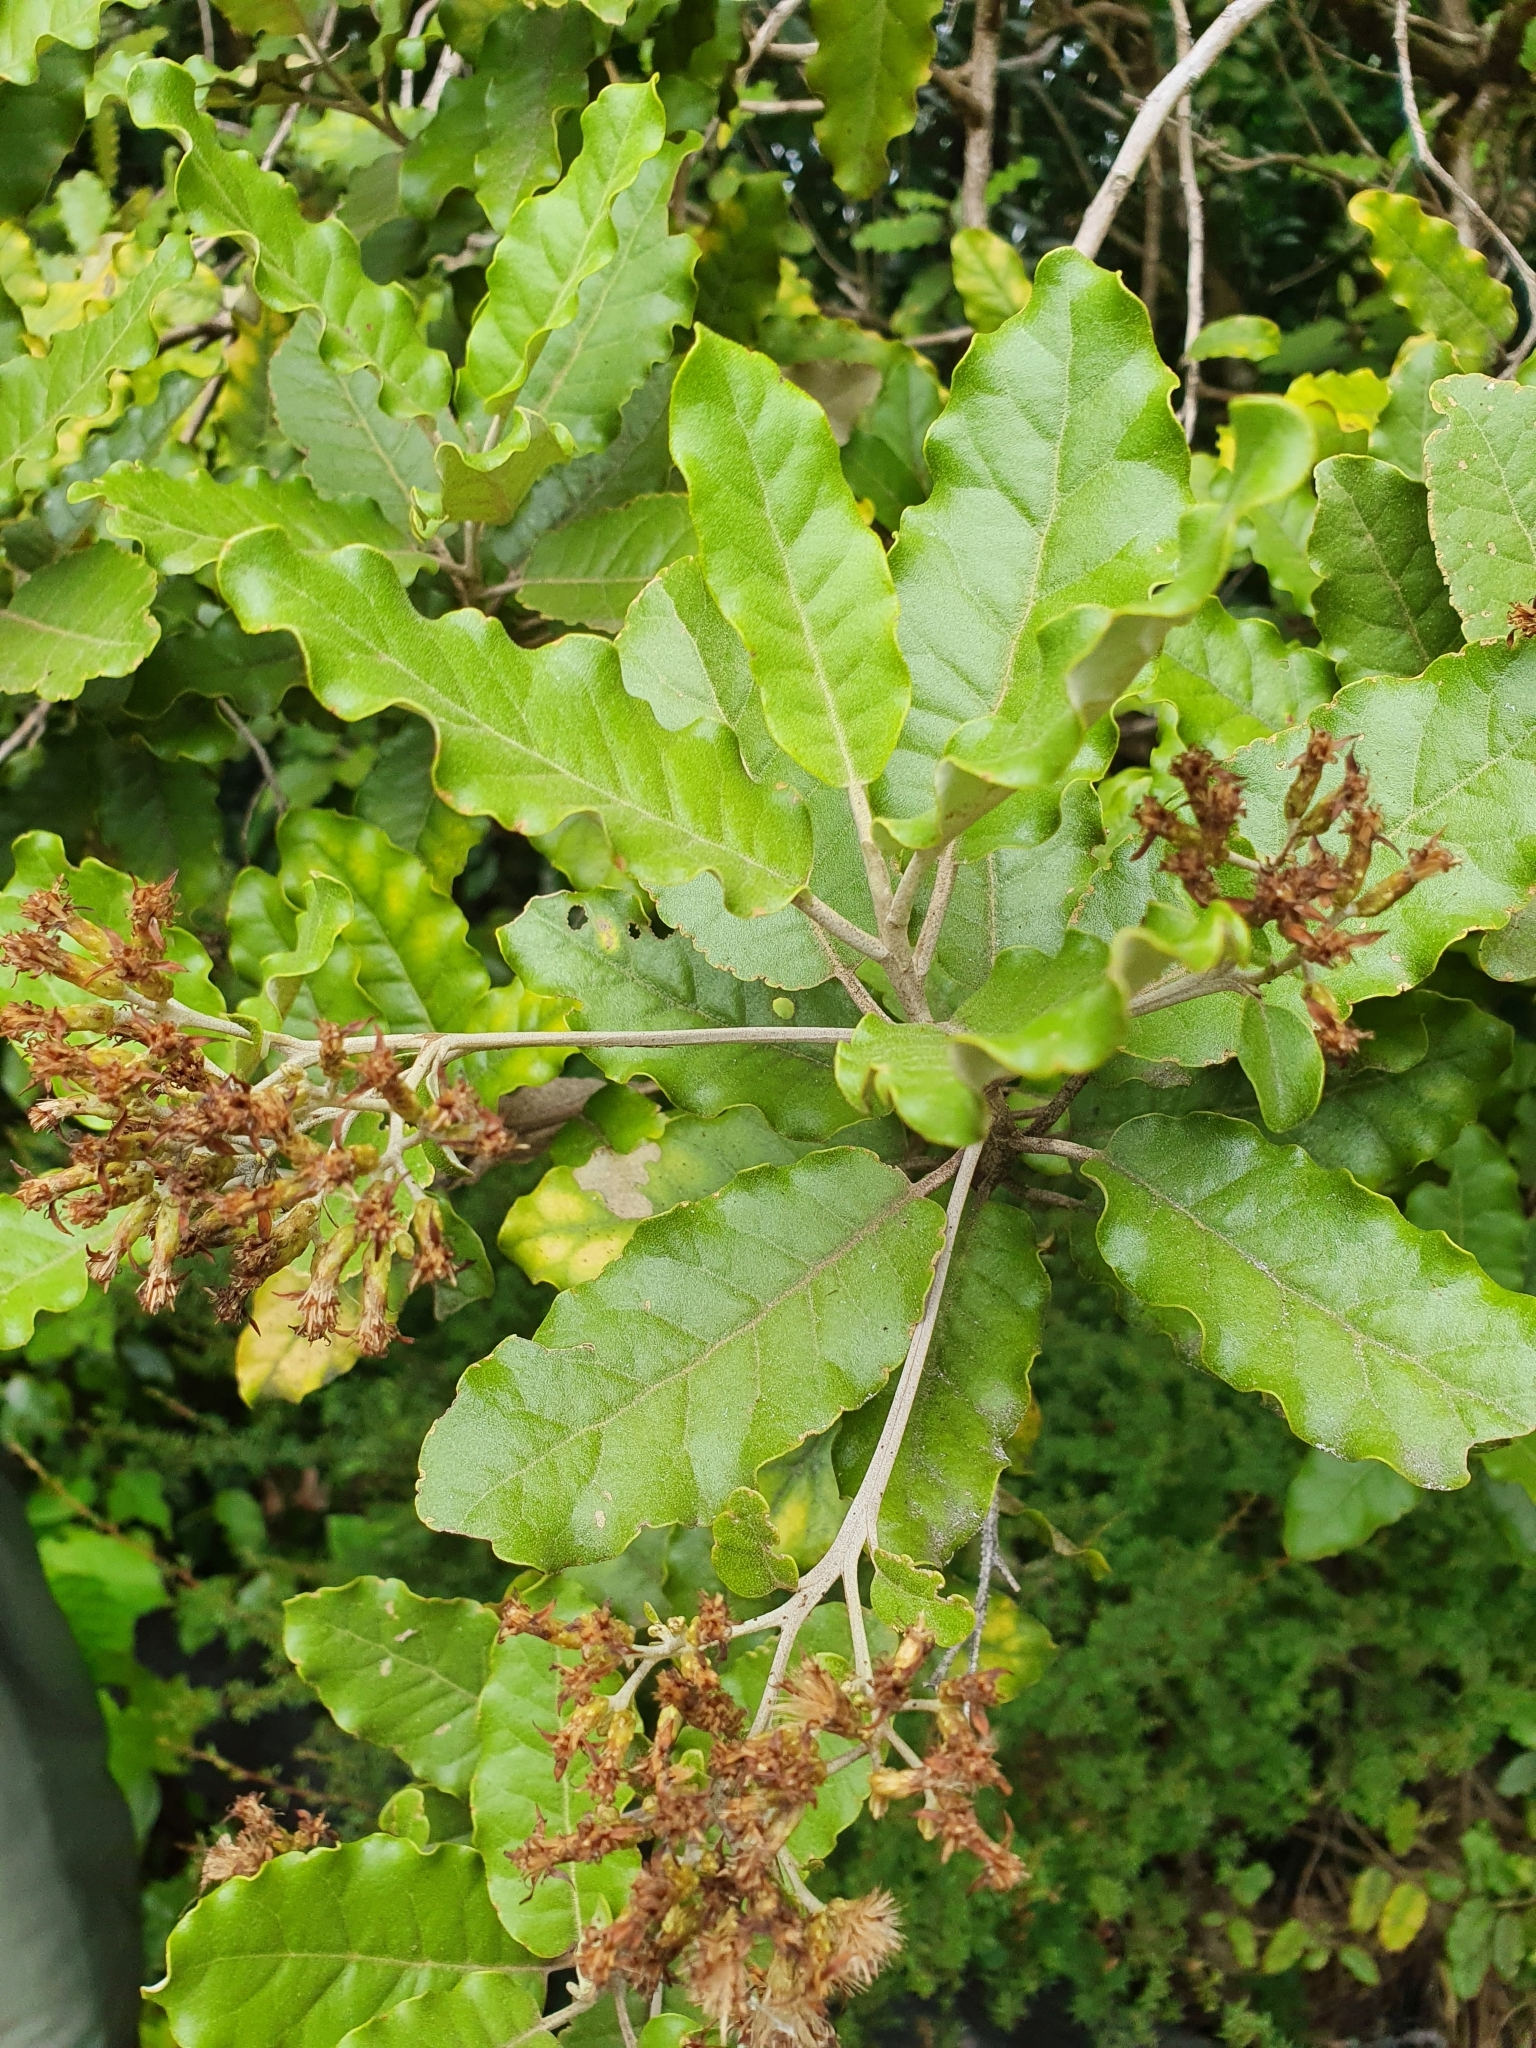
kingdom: Plantae
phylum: Tracheophyta
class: Magnoliopsida
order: Asterales
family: Asteraceae
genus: Olearia
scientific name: Olearia angulata
